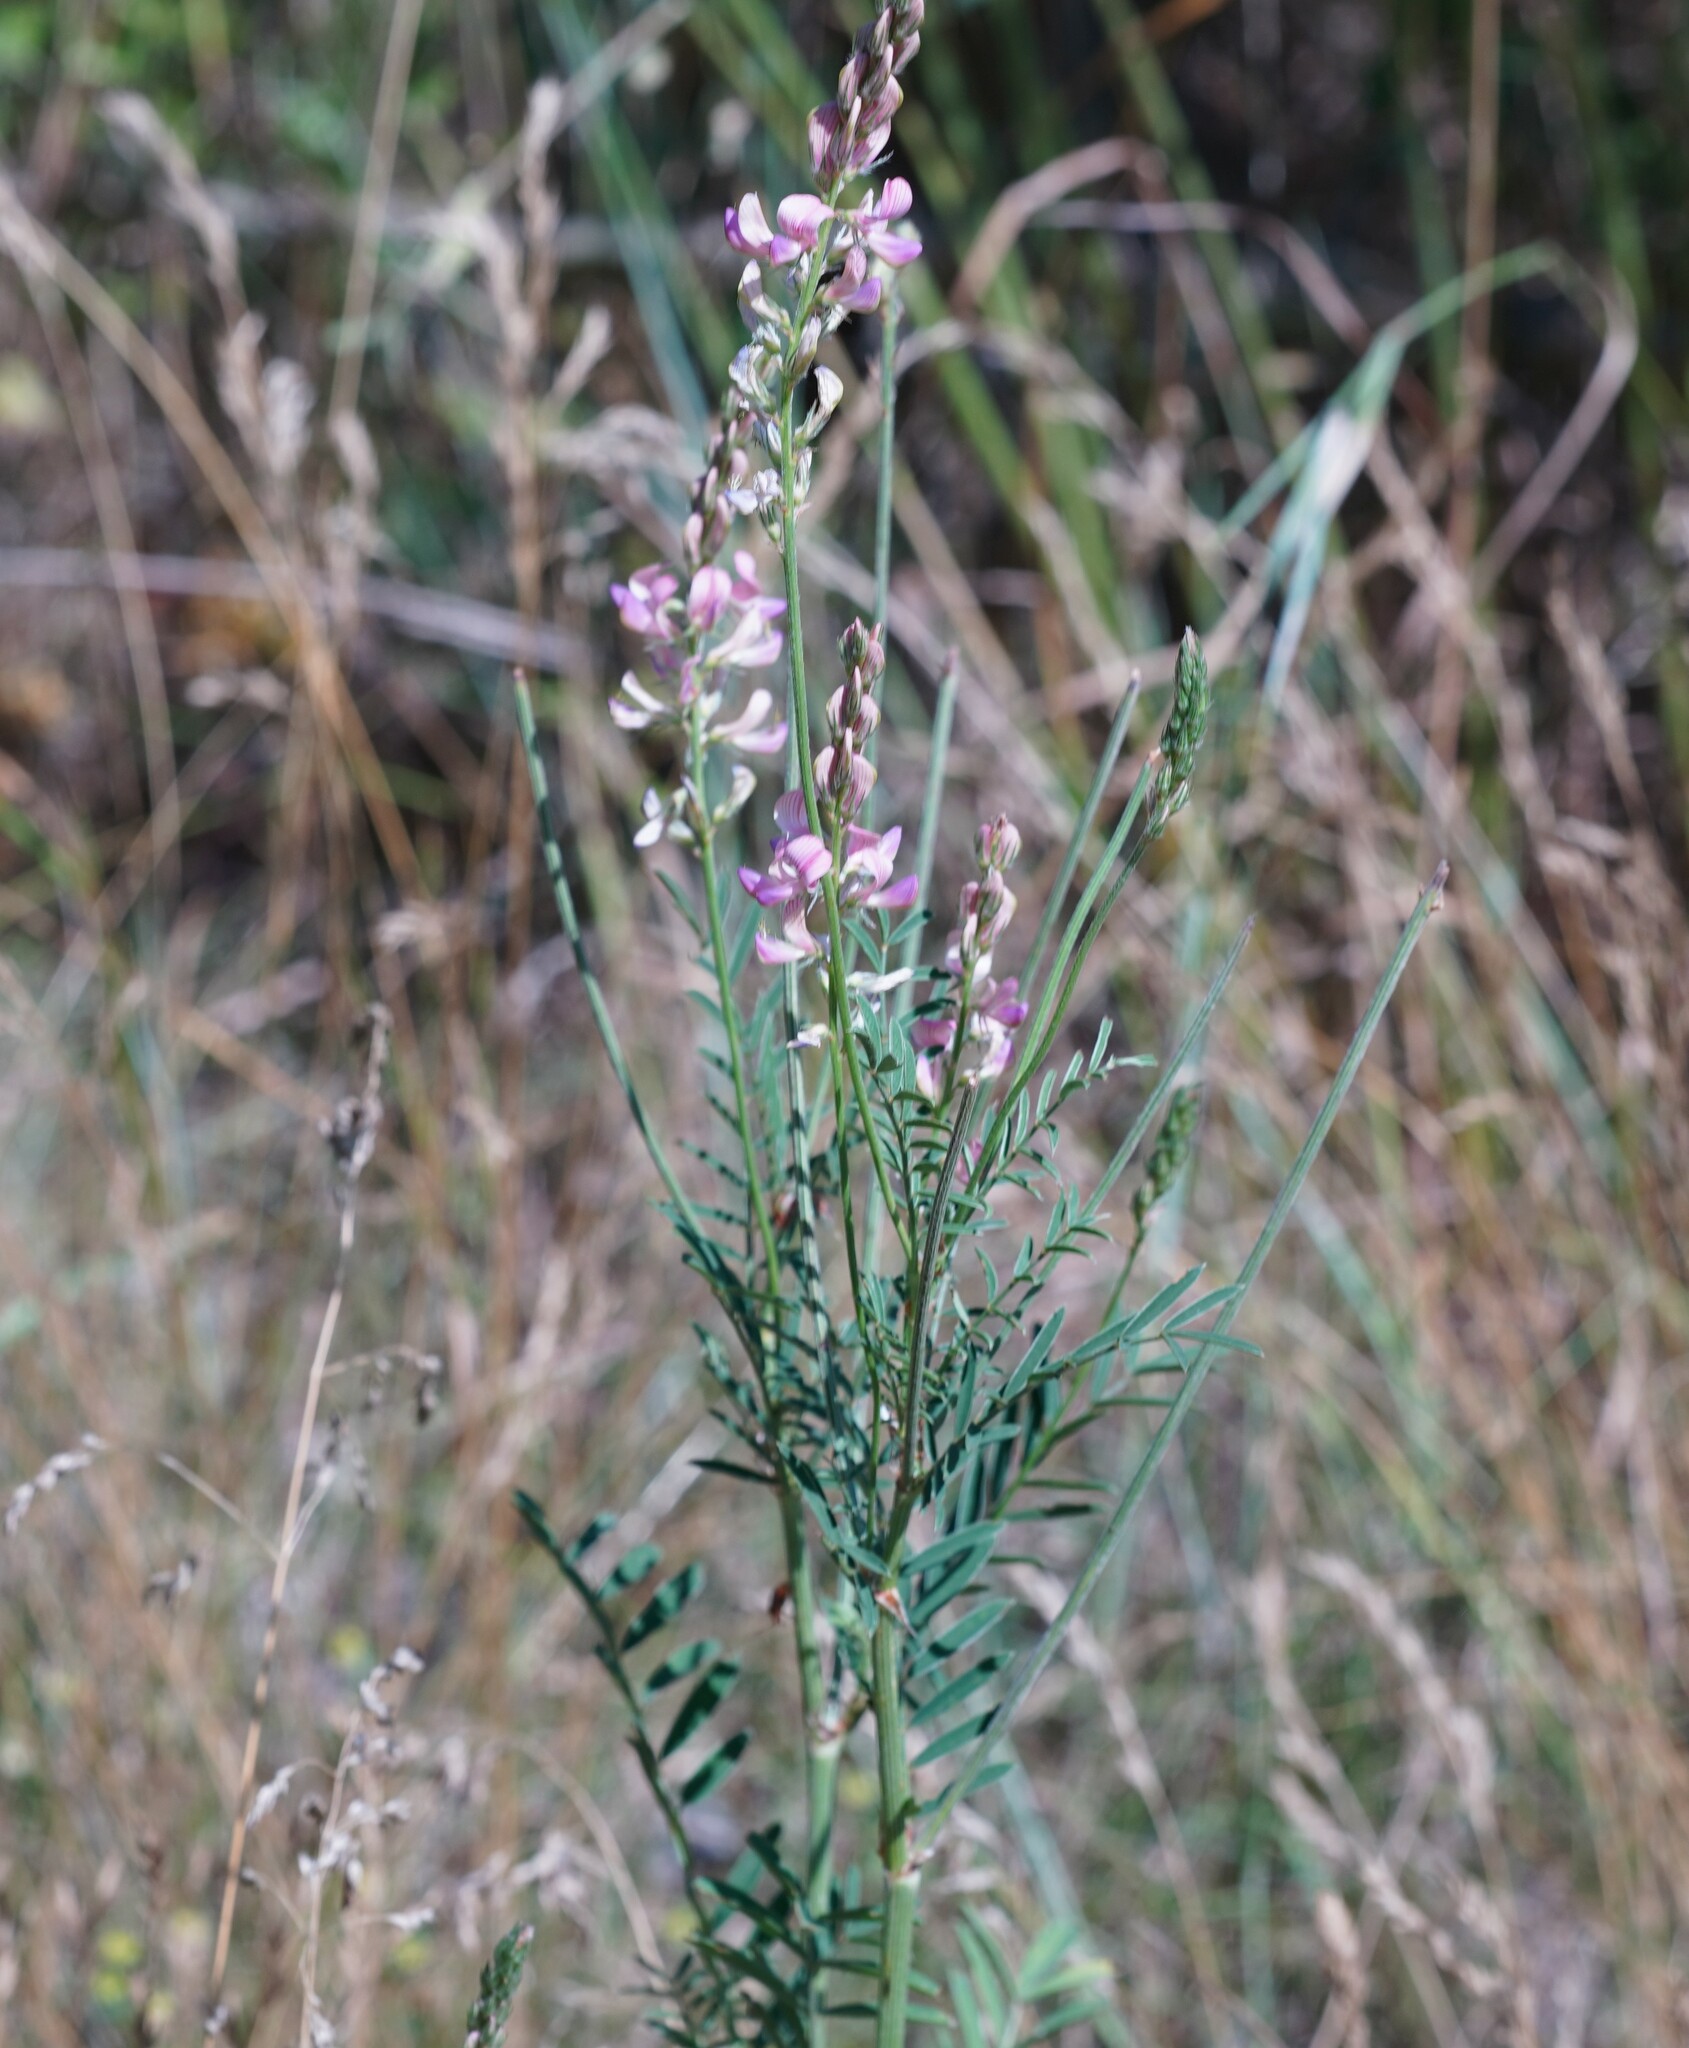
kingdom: Plantae
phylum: Tracheophyta
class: Magnoliopsida
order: Fabales
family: Fabaceae
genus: Onobrychis
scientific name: Onobrychis viciifolia
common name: Sainfoin
